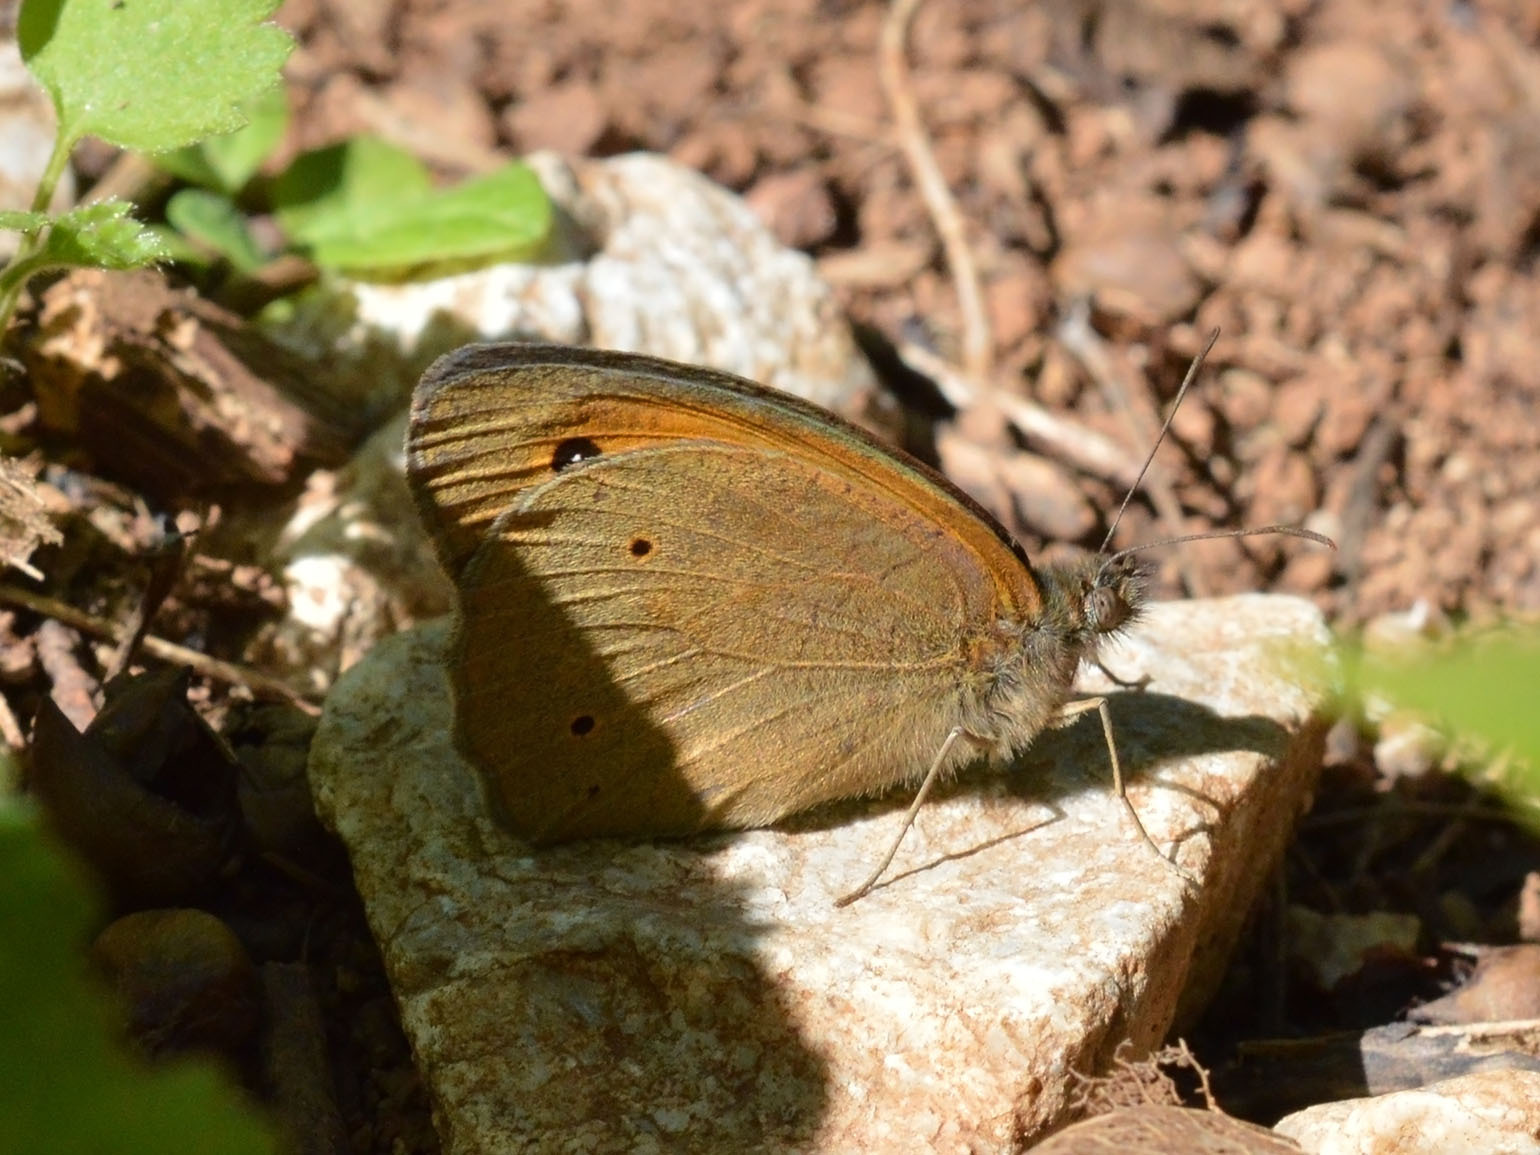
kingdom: Animalia
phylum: Arthropoda
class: Insecta
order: Lepidoptera
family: Nymphalidae
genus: Maniola
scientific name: Maniola jurtina
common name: Meadow brown
